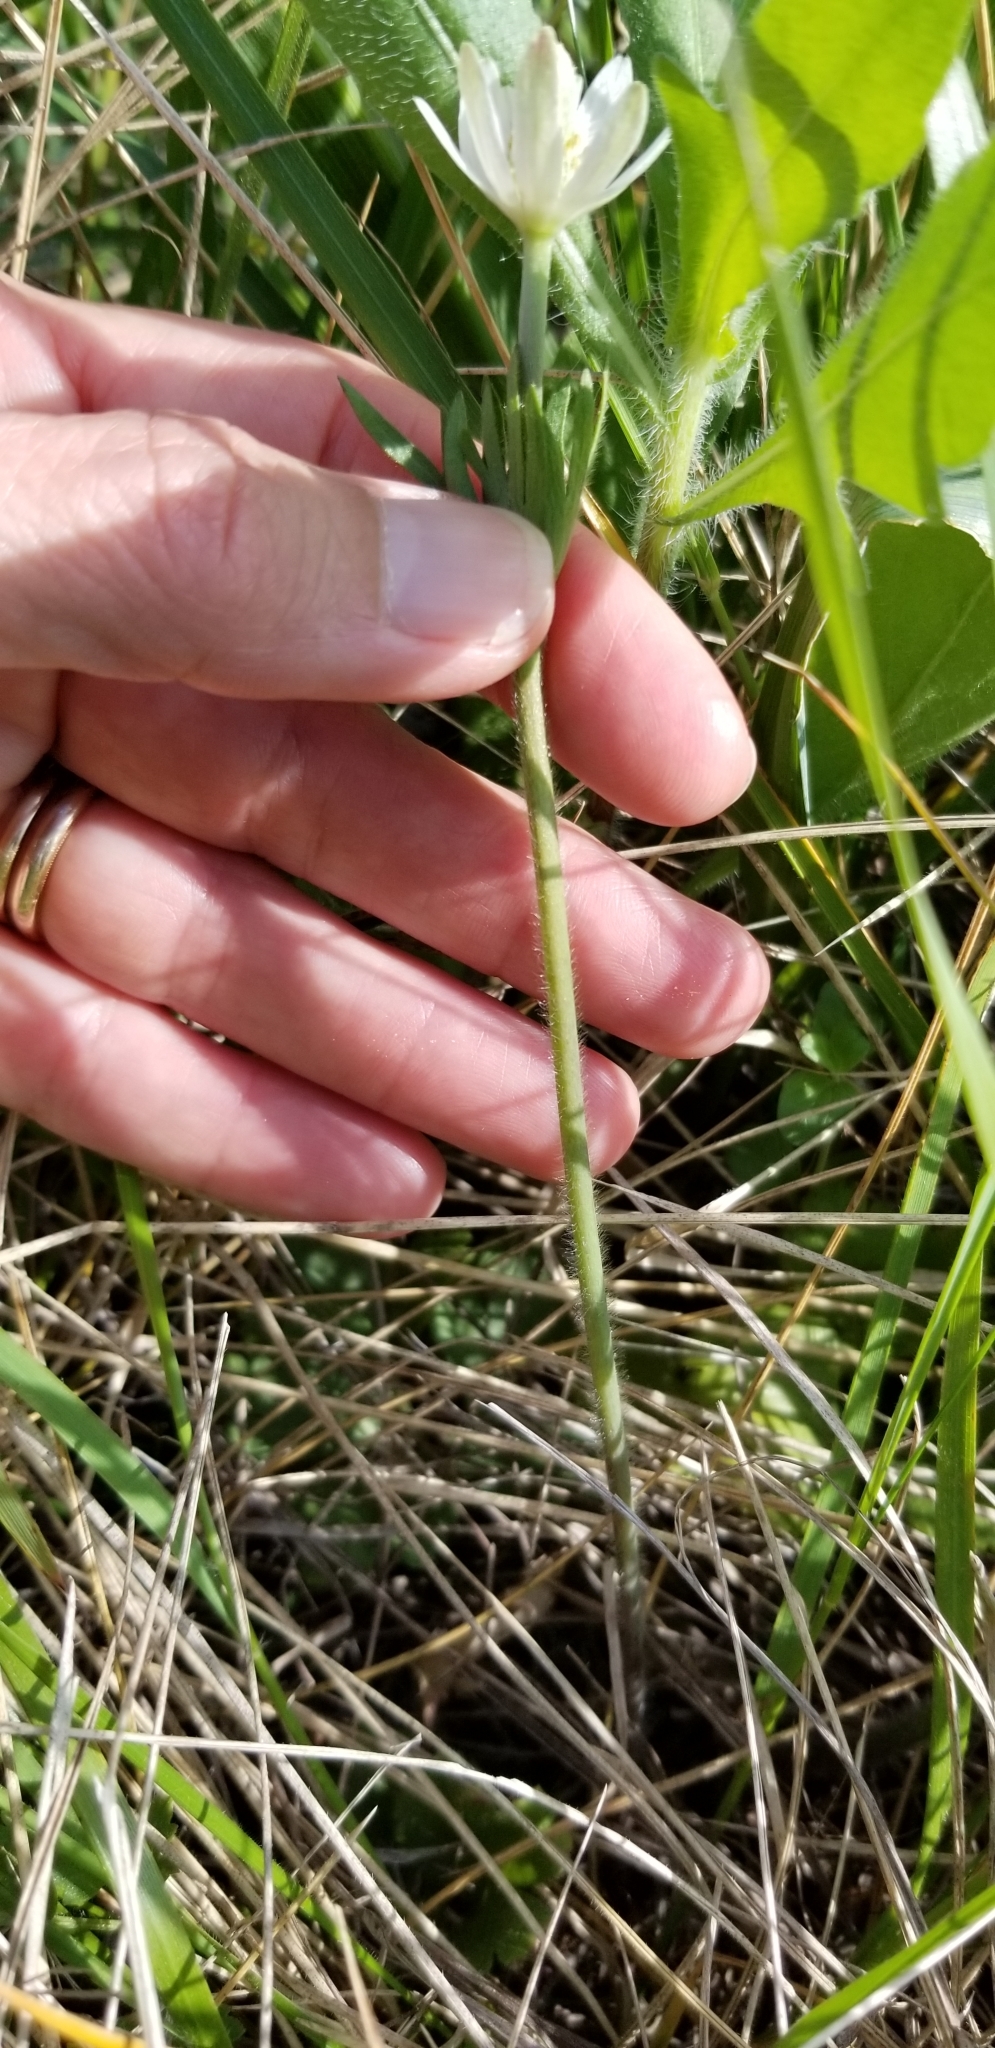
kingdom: Plantae
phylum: Tracheophyta
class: Magnoliopsida
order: Ranunculales
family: Ranunculaceae
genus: Anemone
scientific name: Anemone berlandieri
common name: Ten-petal anemone
